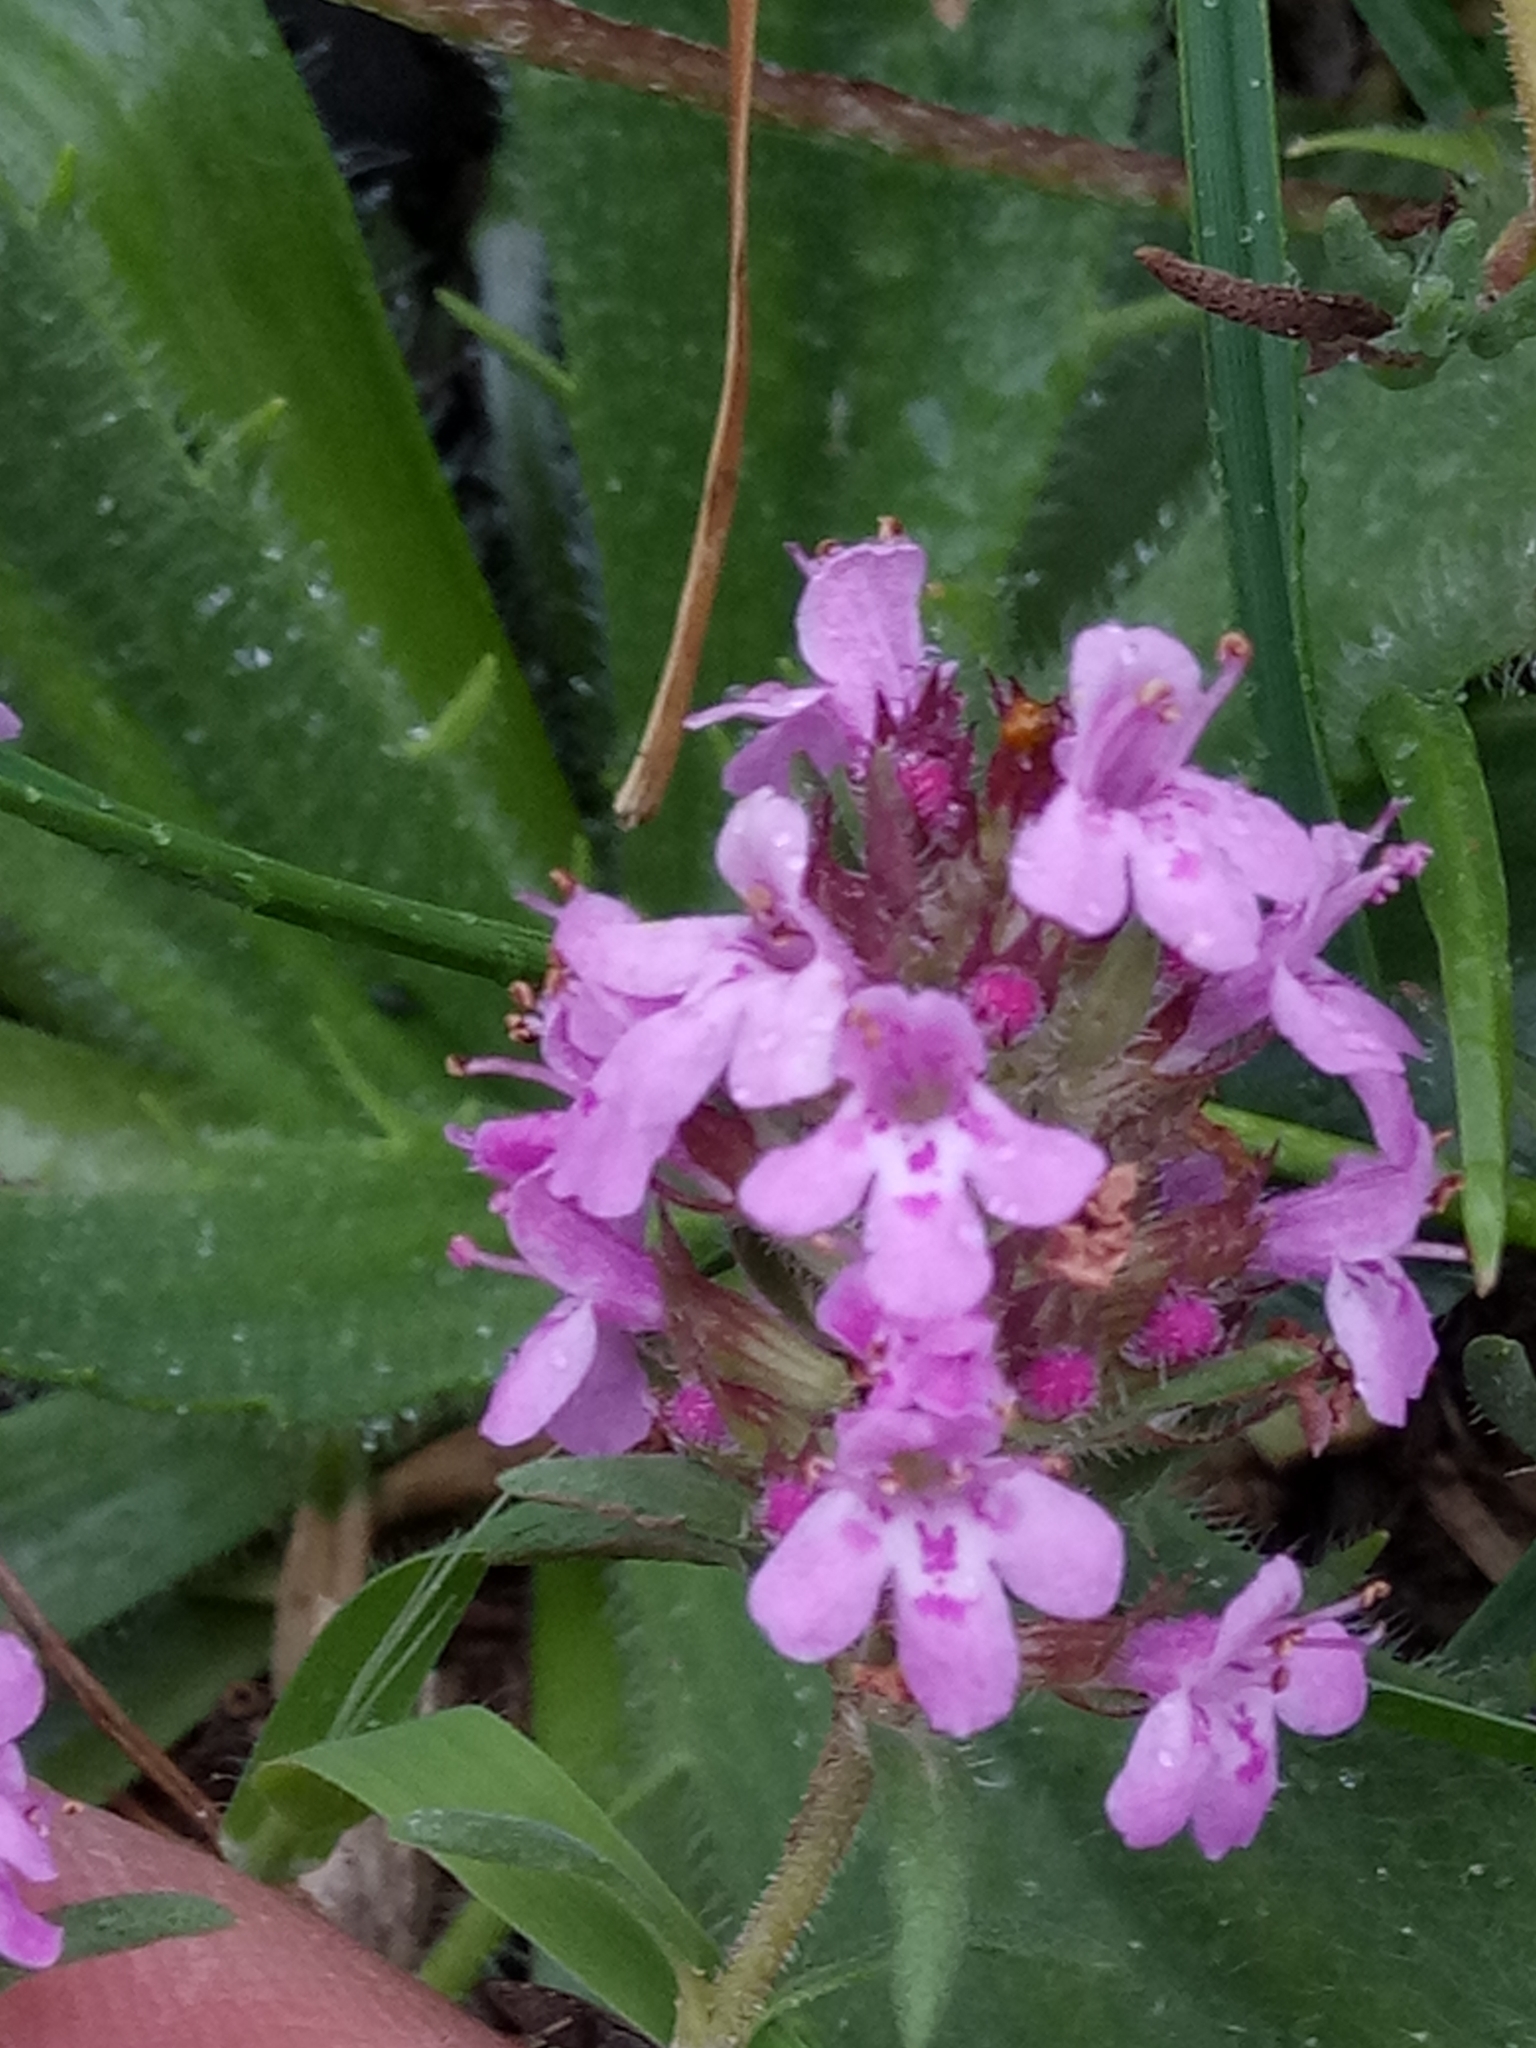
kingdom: Plantae
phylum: Tracheophyta
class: Magnoliopsida
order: Lamiales
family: Lamiaceae
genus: Thymus
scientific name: Thymus willdenowii
